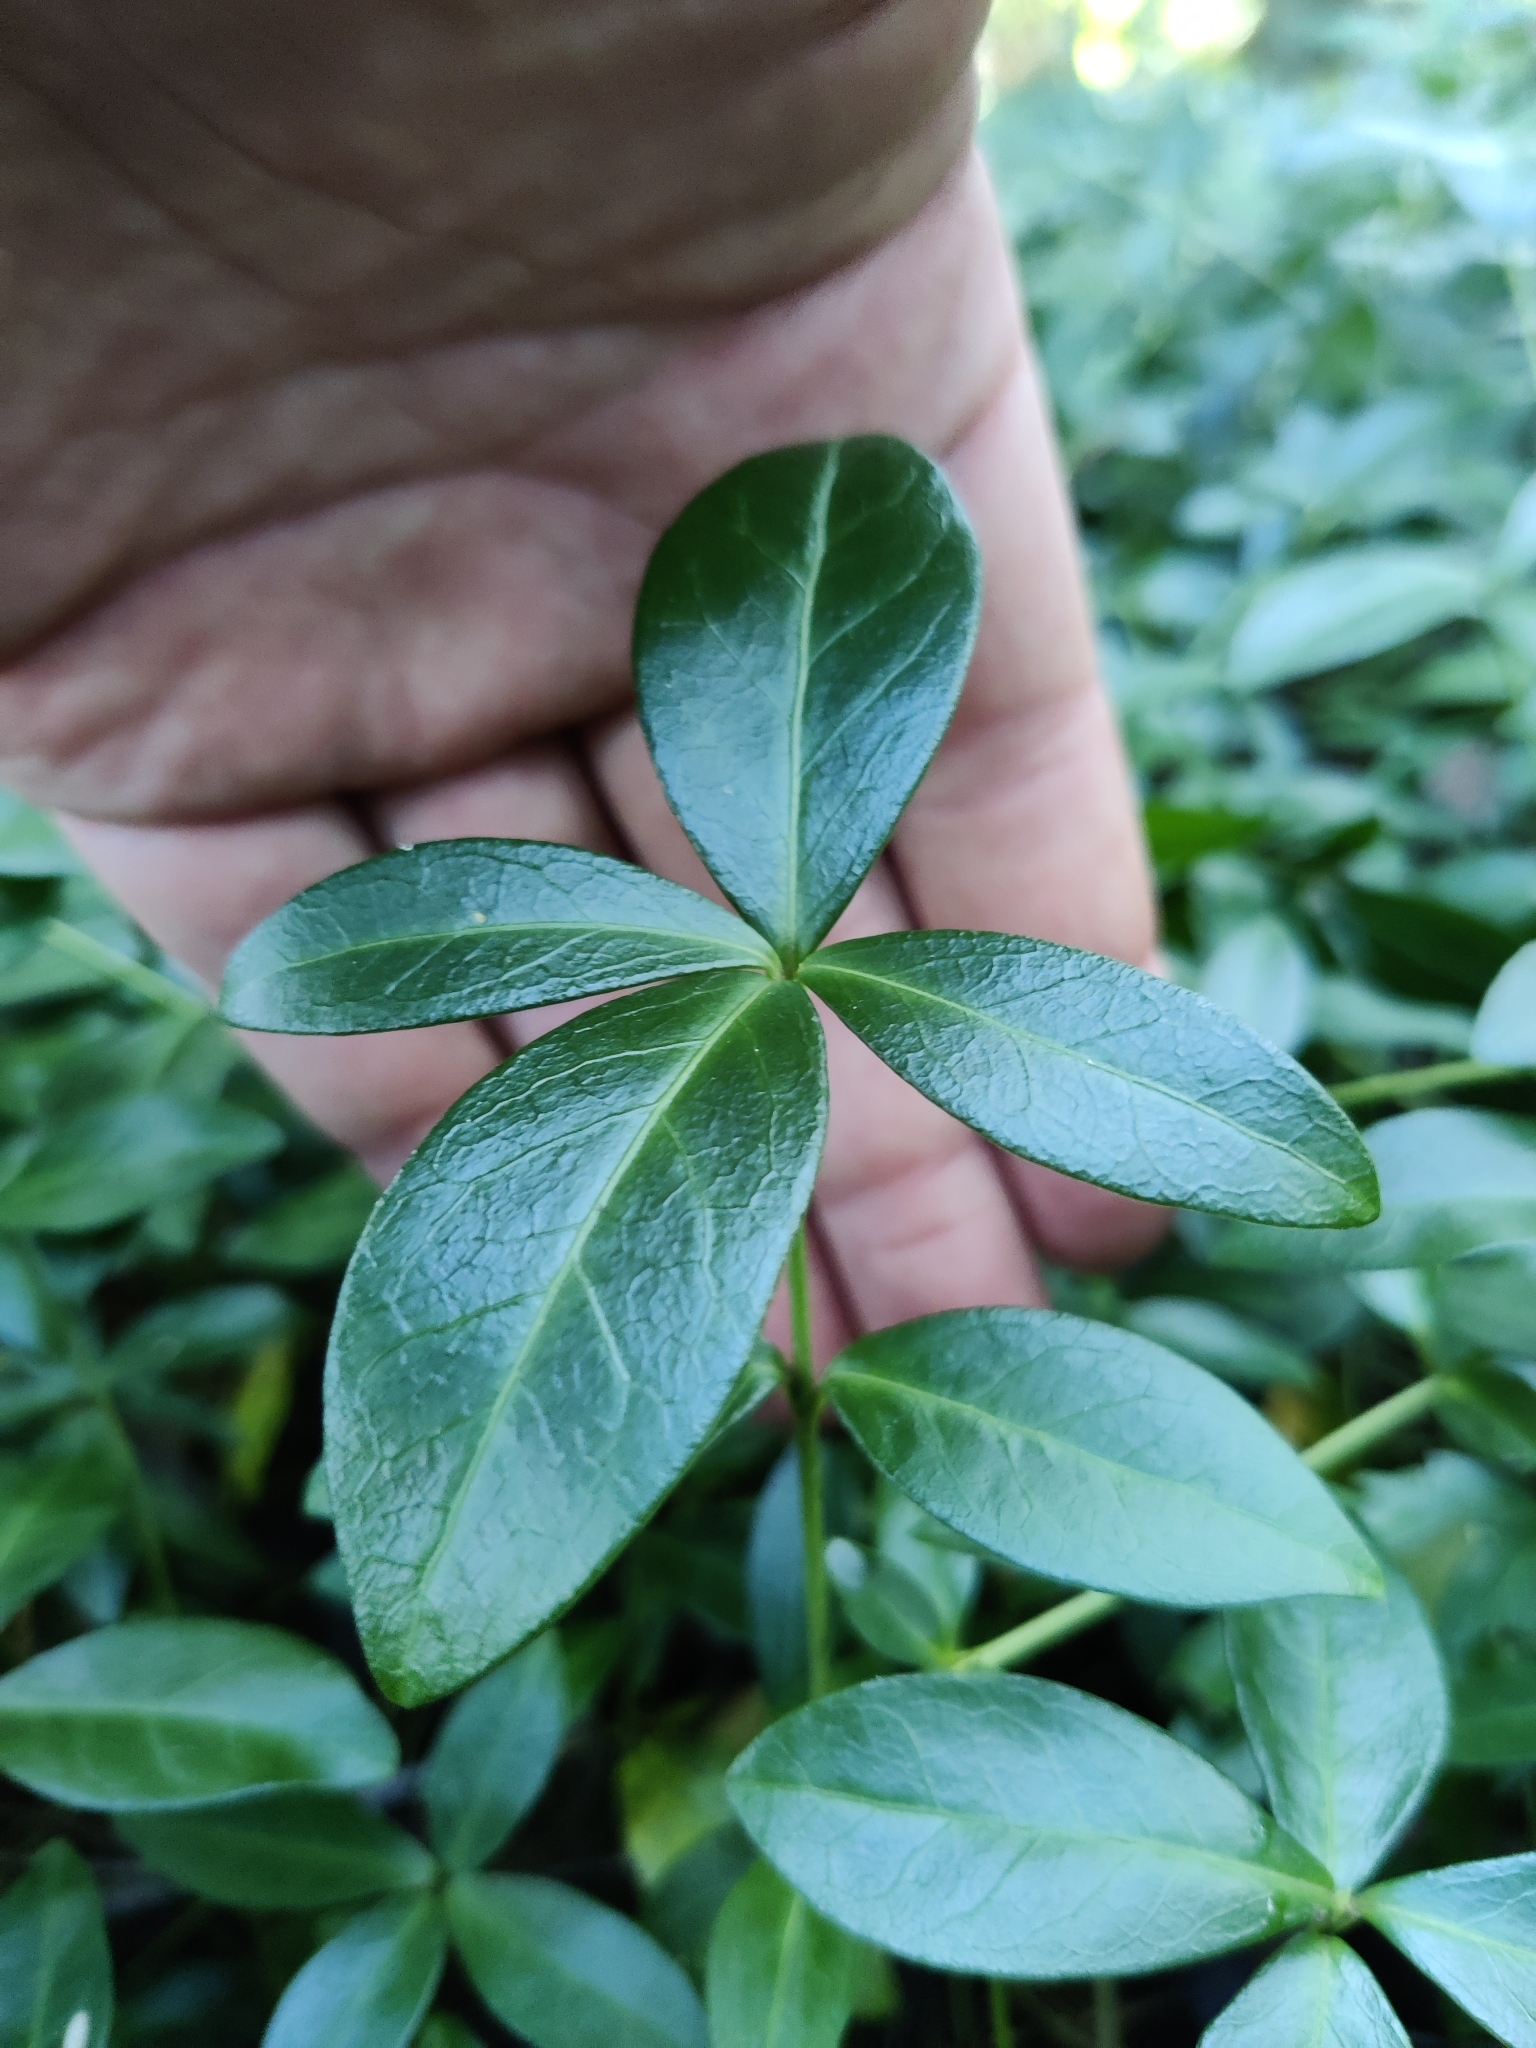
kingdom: Plantae
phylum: Tracheophyta
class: Magnoliopsida
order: Gentianales
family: Apocynaceae
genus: Vinca
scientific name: Vinca minor
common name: Lesser periwinkle
